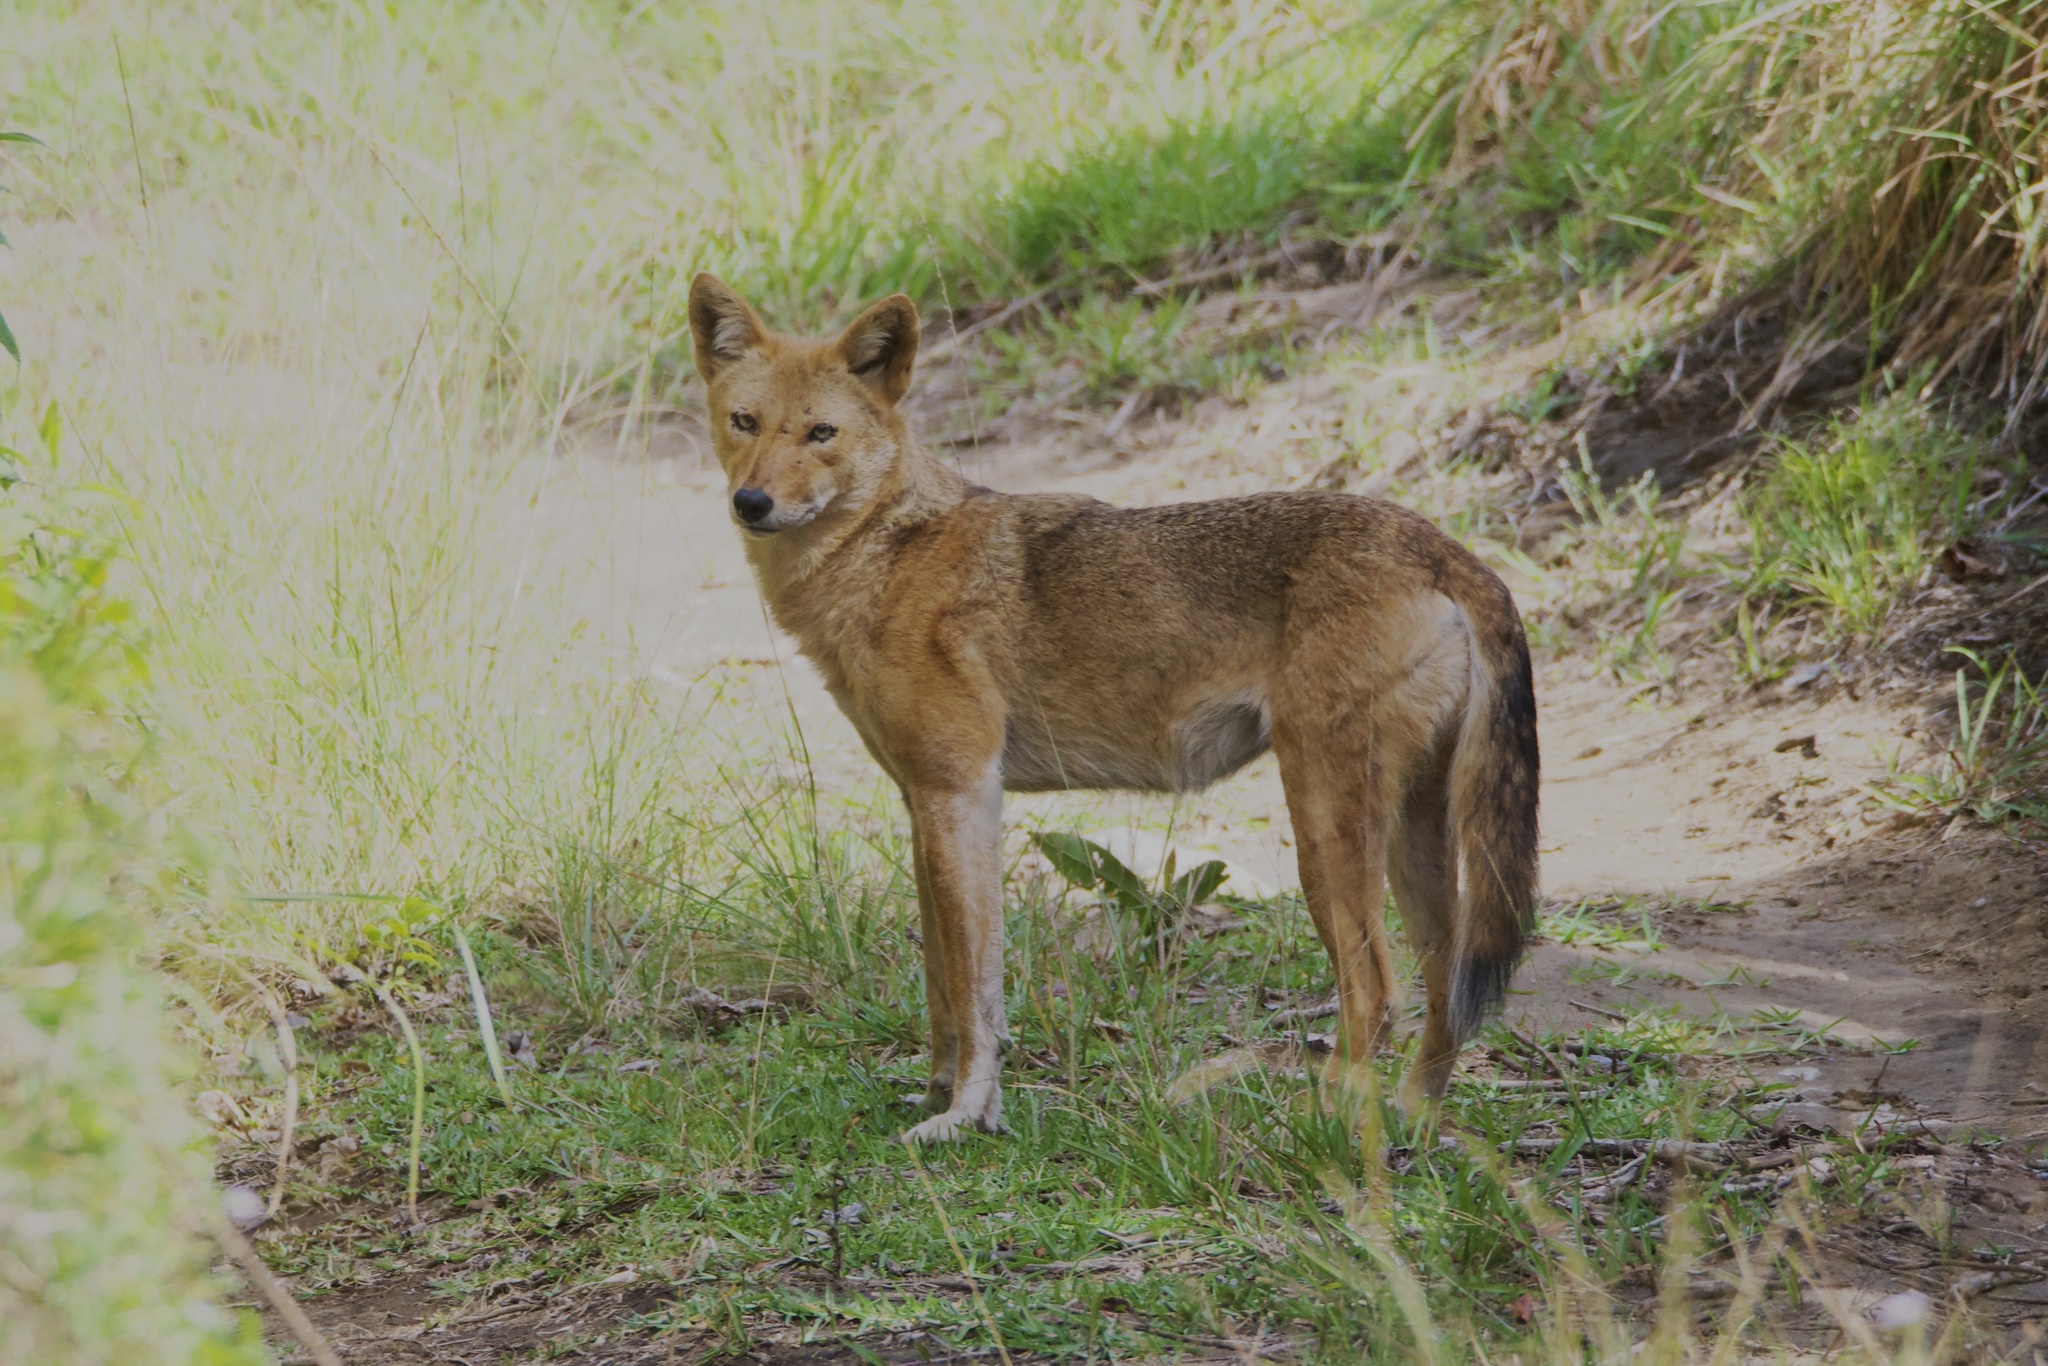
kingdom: Animalia
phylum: Chordata
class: Mammalia
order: Carnivora
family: Canidae
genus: Canis
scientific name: Canis latrans
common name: Coyote
